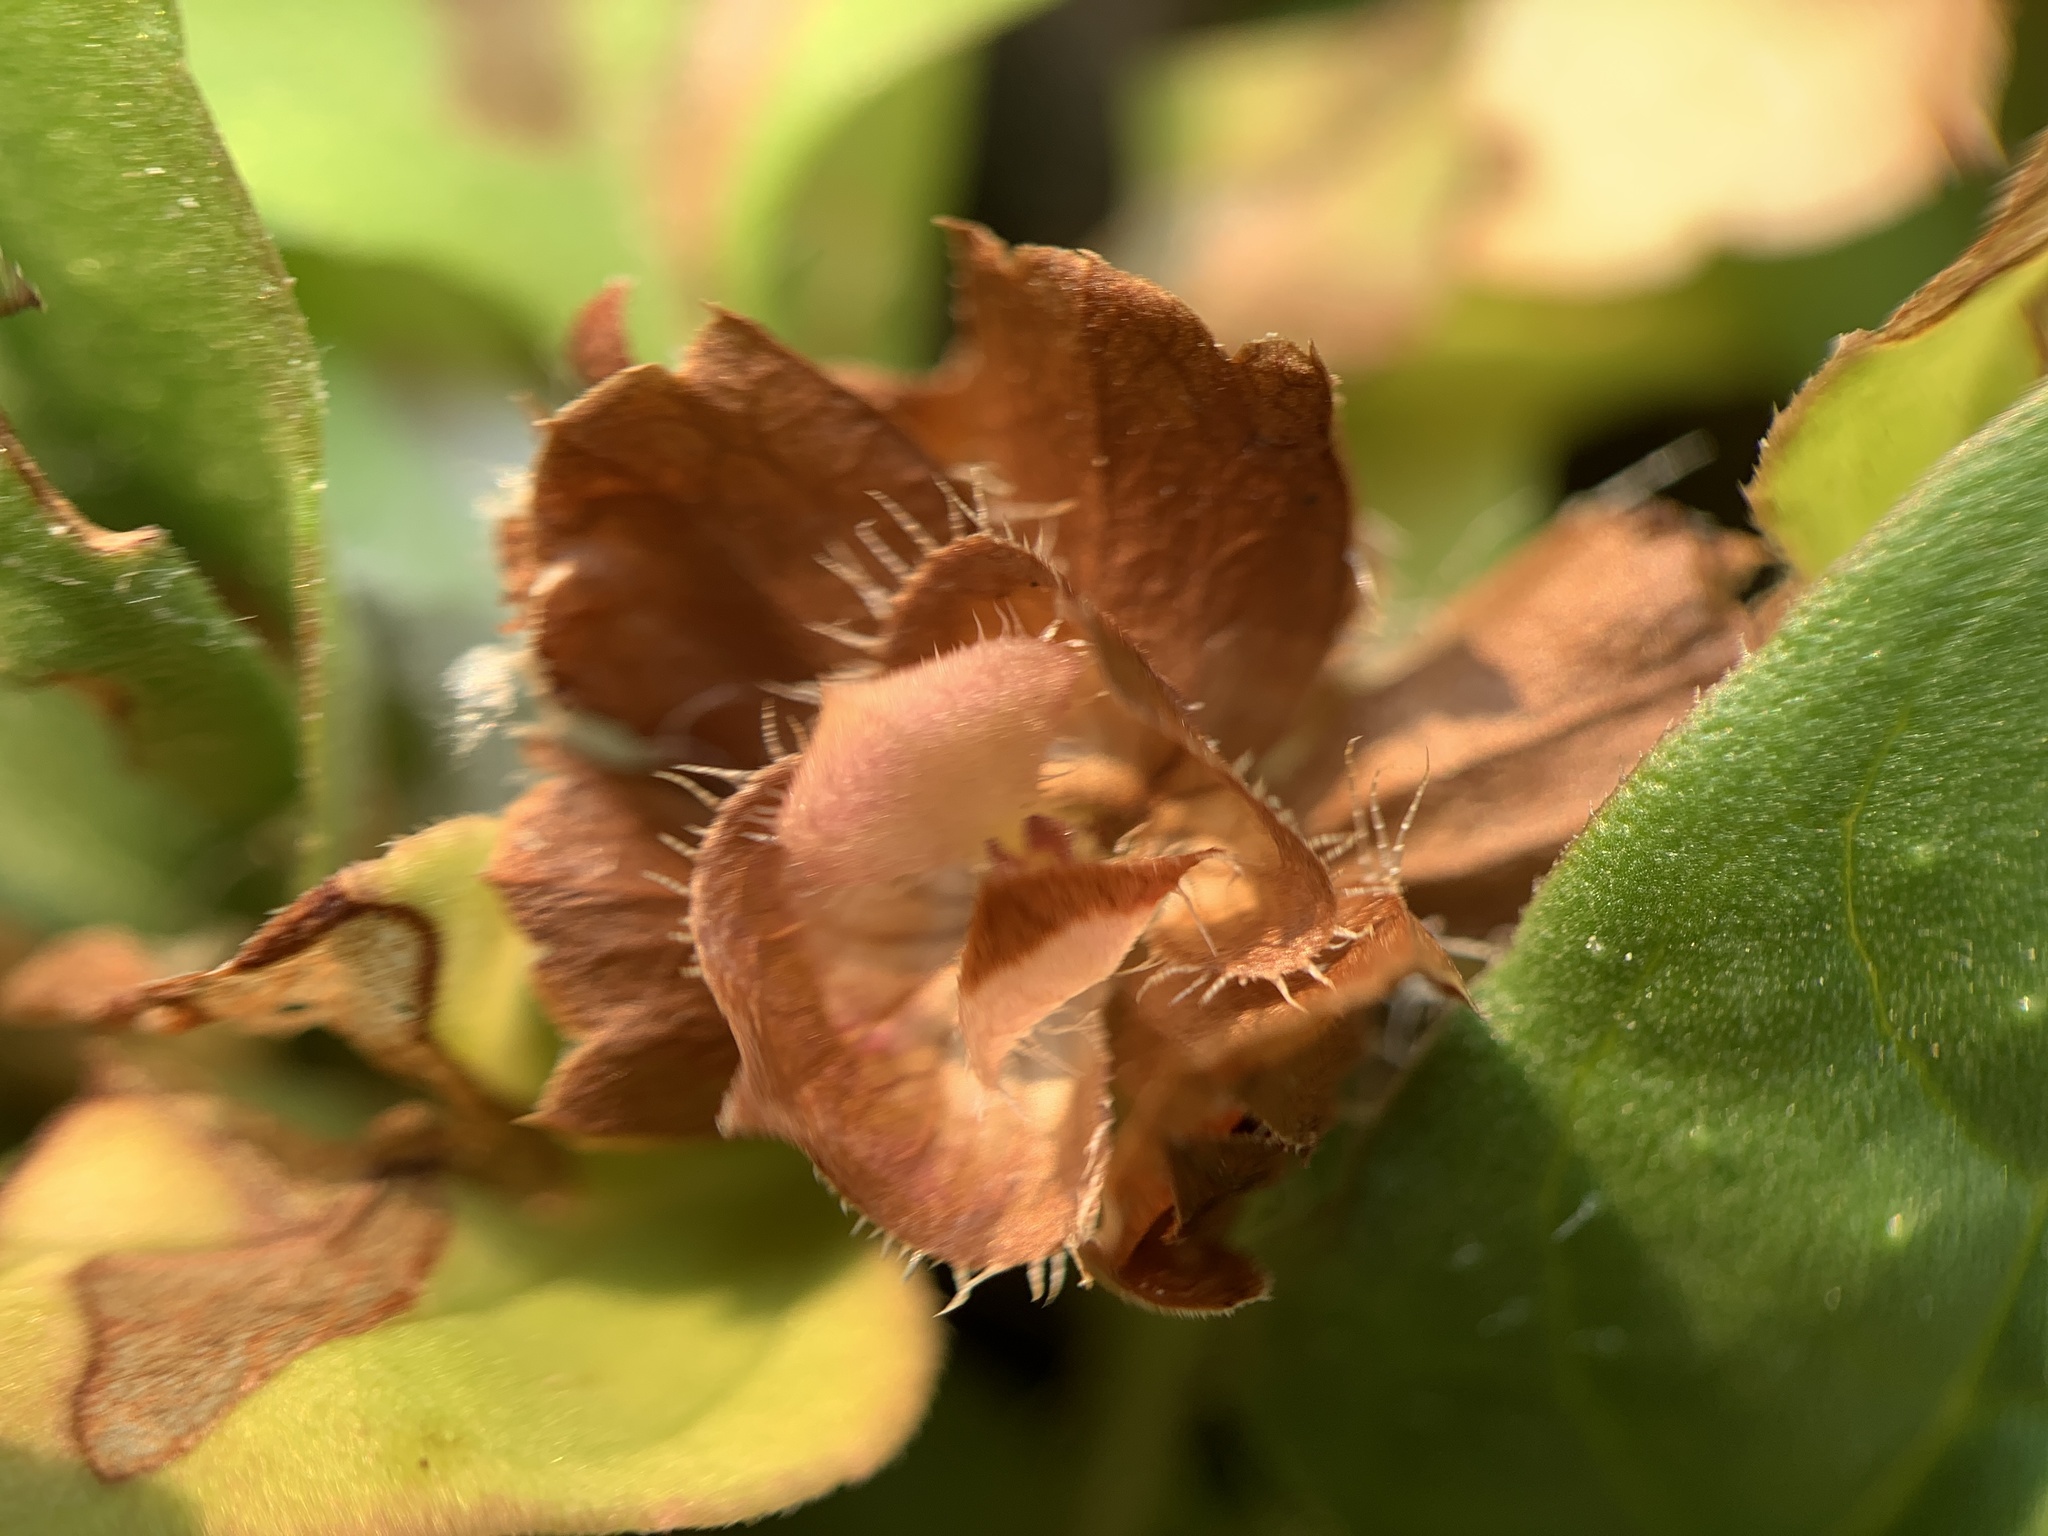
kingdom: Plantae
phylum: Tracheophyta
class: Magnoliopsida
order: Lamiales
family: Lamiaceae
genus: Prunella
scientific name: Prunella vulgaris
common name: Heal-all
